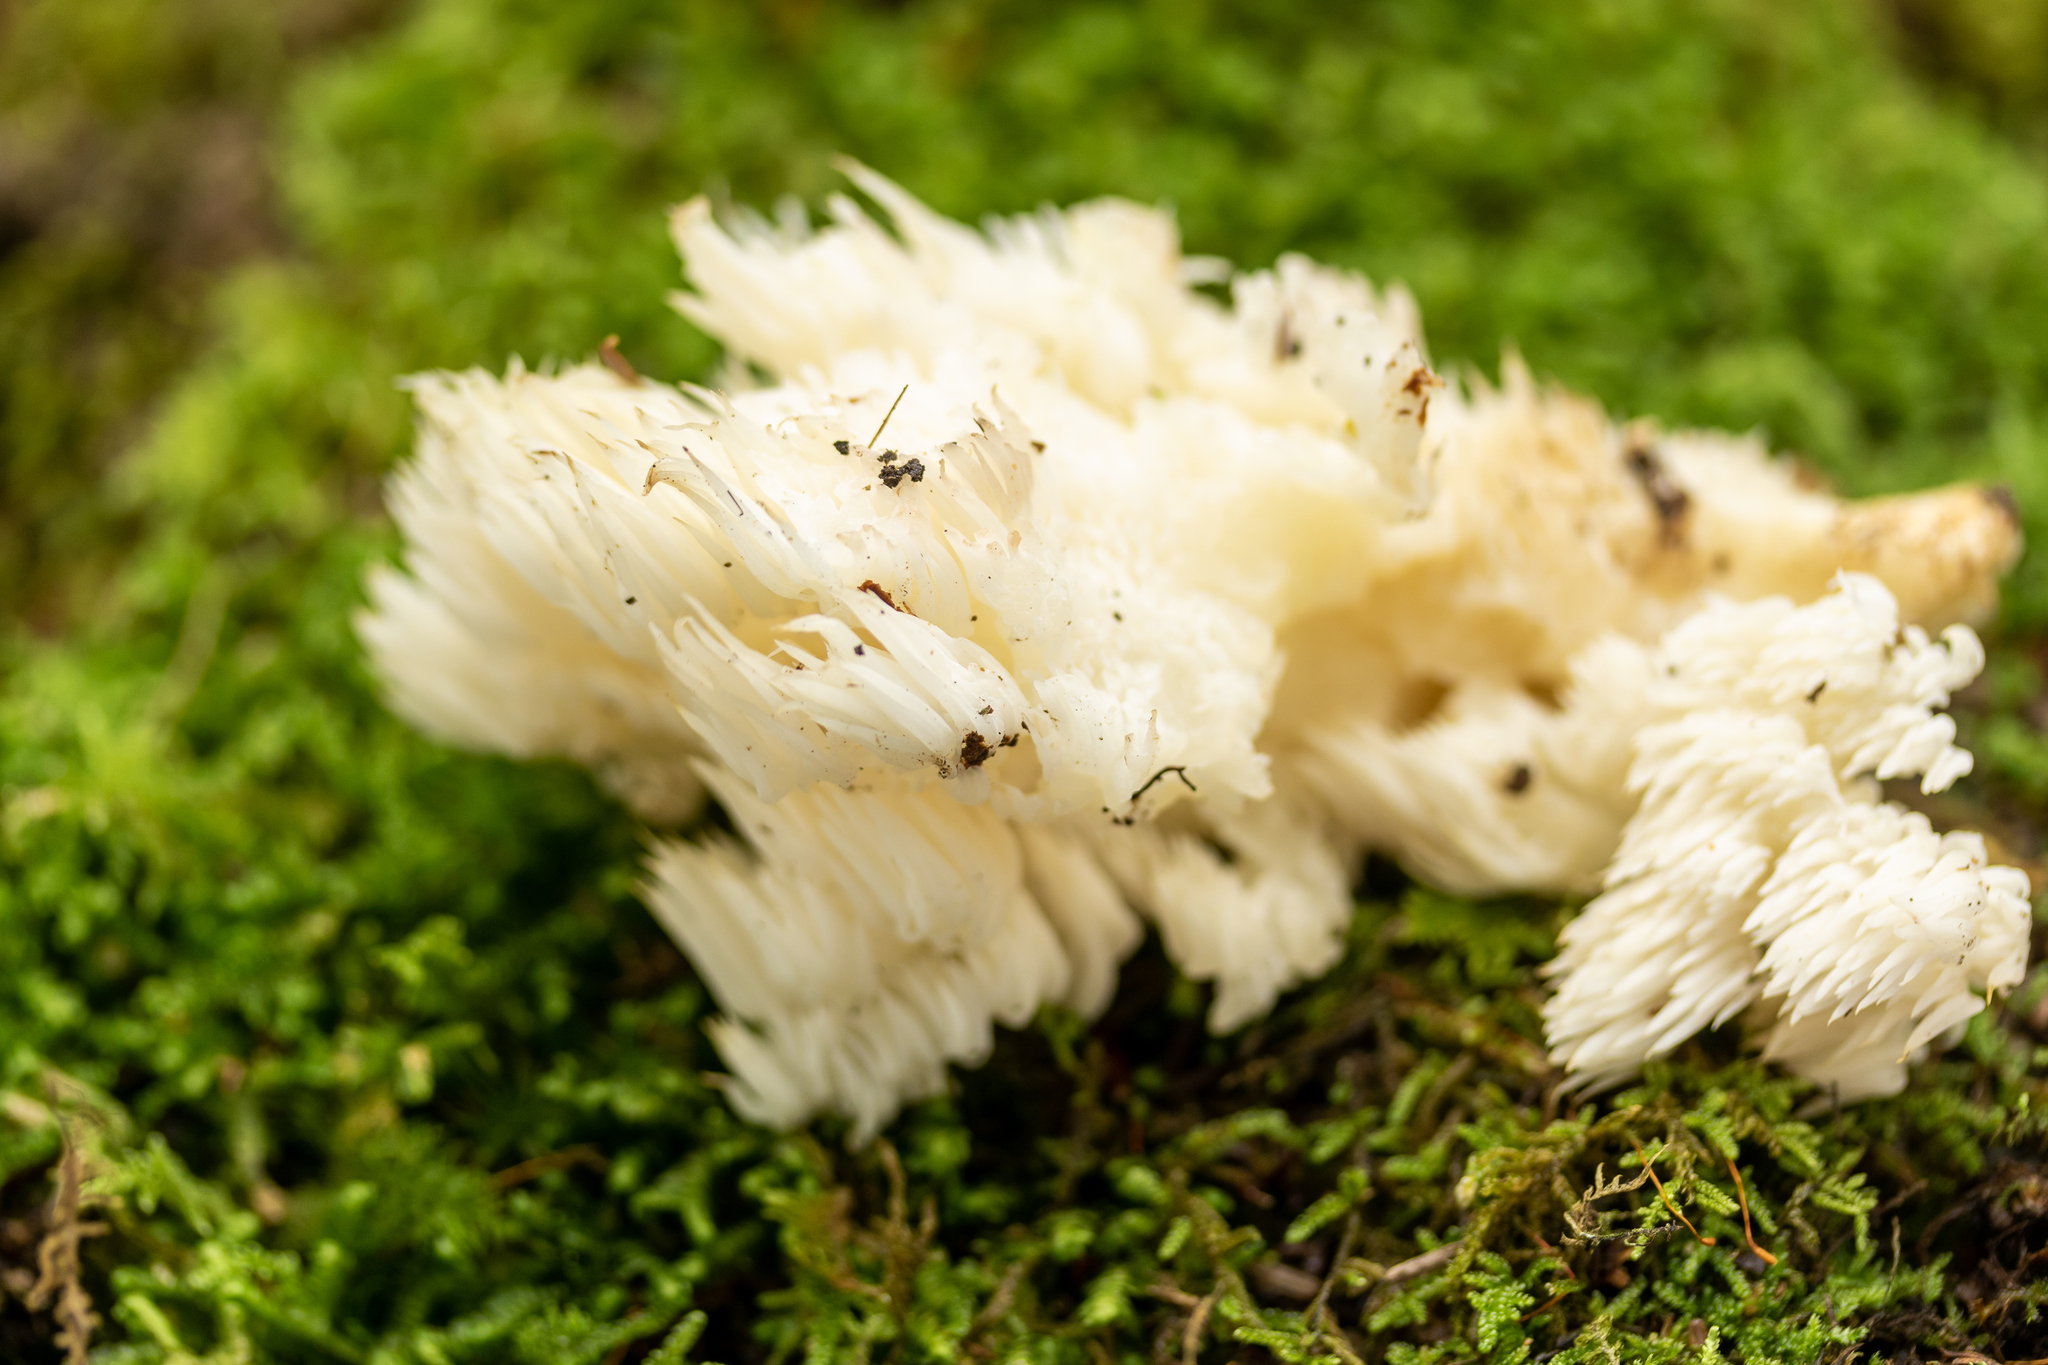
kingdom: Fungi
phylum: Basidiomycota
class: Agaricomycetes
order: Russulales
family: Hericiaceae
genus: Hericium
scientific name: Hericium americanum
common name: Bear's head tooth
